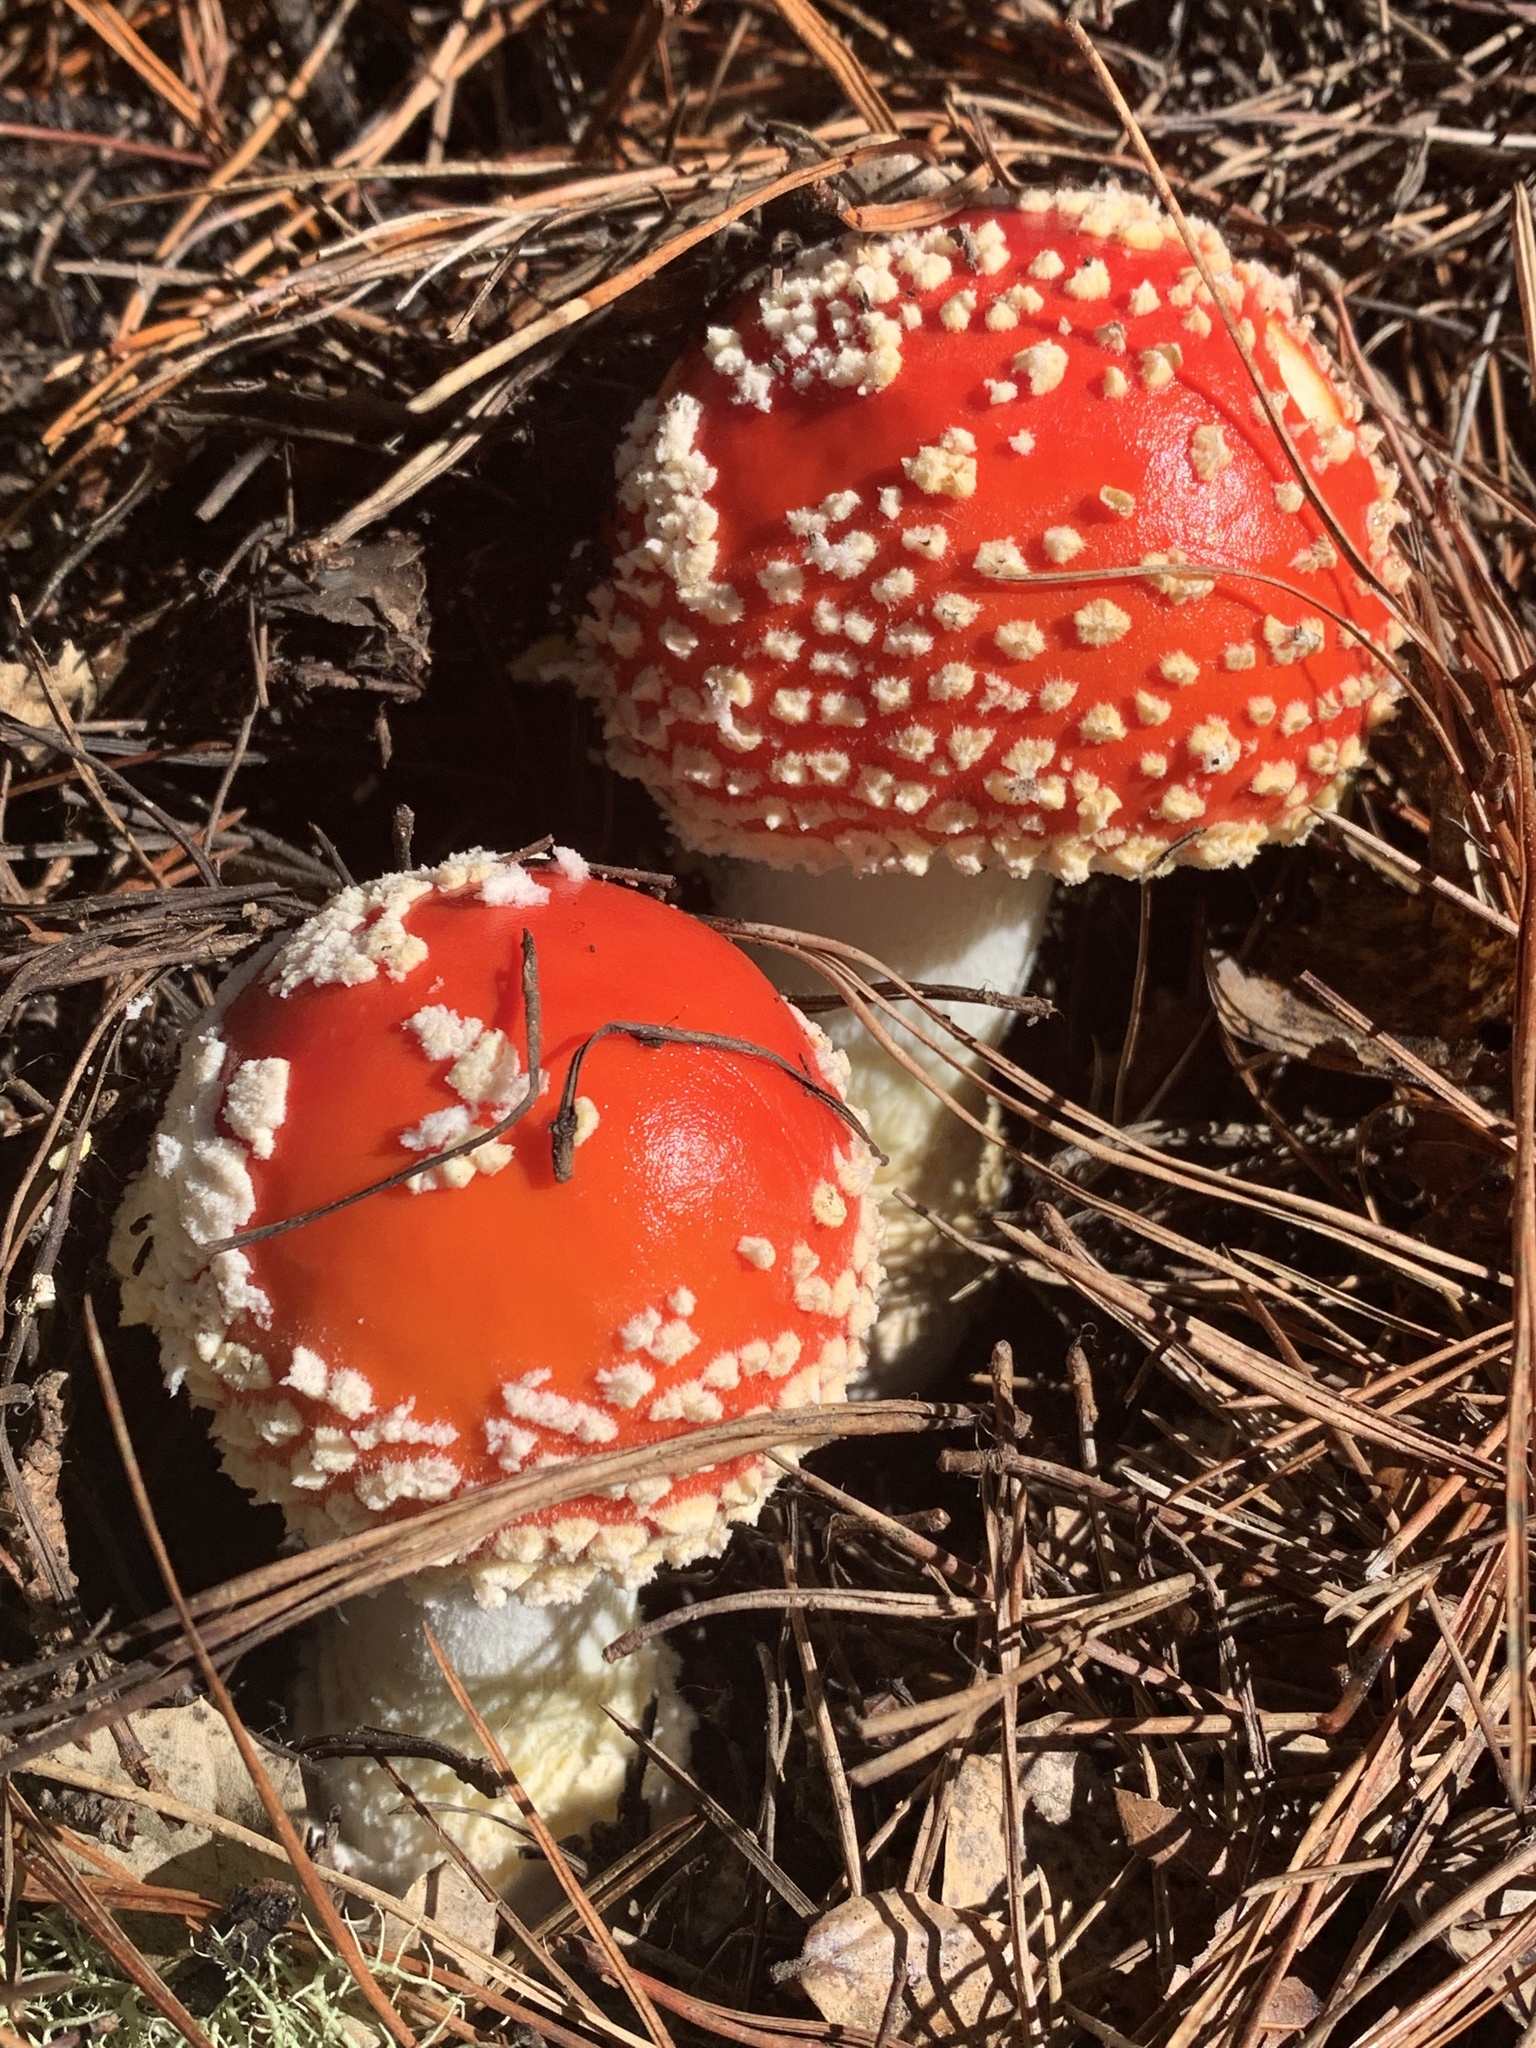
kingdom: Fungi
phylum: Basidiomycota
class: Agaricomycetes
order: Agaricales
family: Amanitaceae
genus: Amanita
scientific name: Amanita muscaria
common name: Fly agaric
